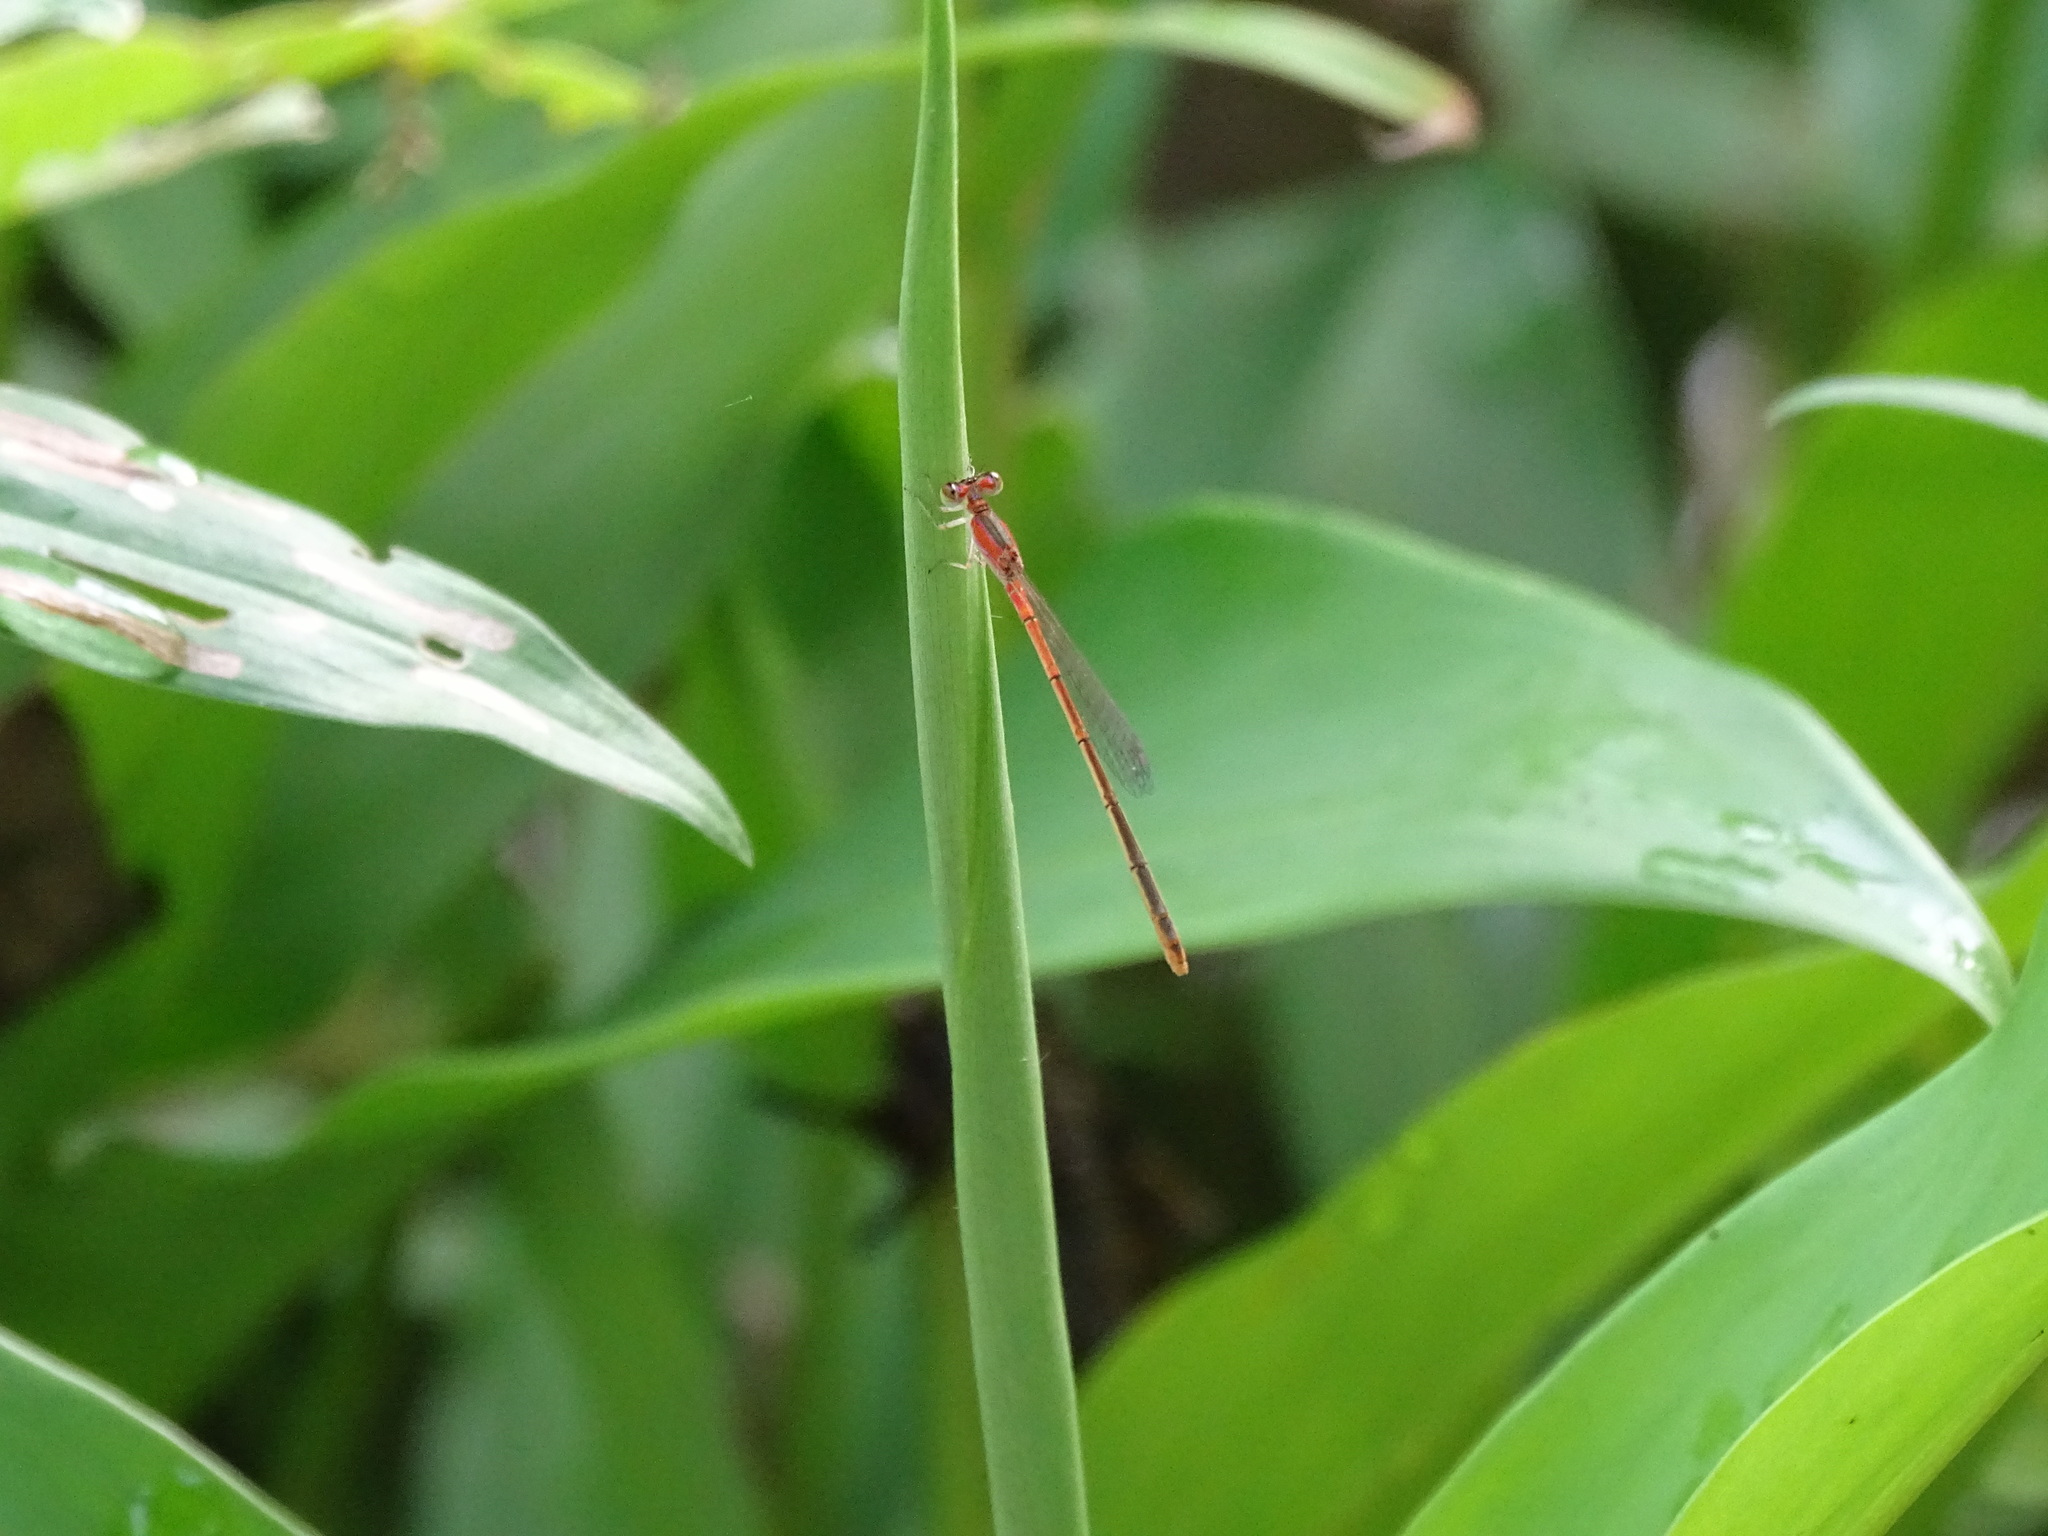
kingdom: Animalia
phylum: Arthropoda
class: Insecta
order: Odonata
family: Coenagrionidae
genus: Agriocnemis
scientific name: Agriocnemis pygmaea
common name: Pygmy wisp
